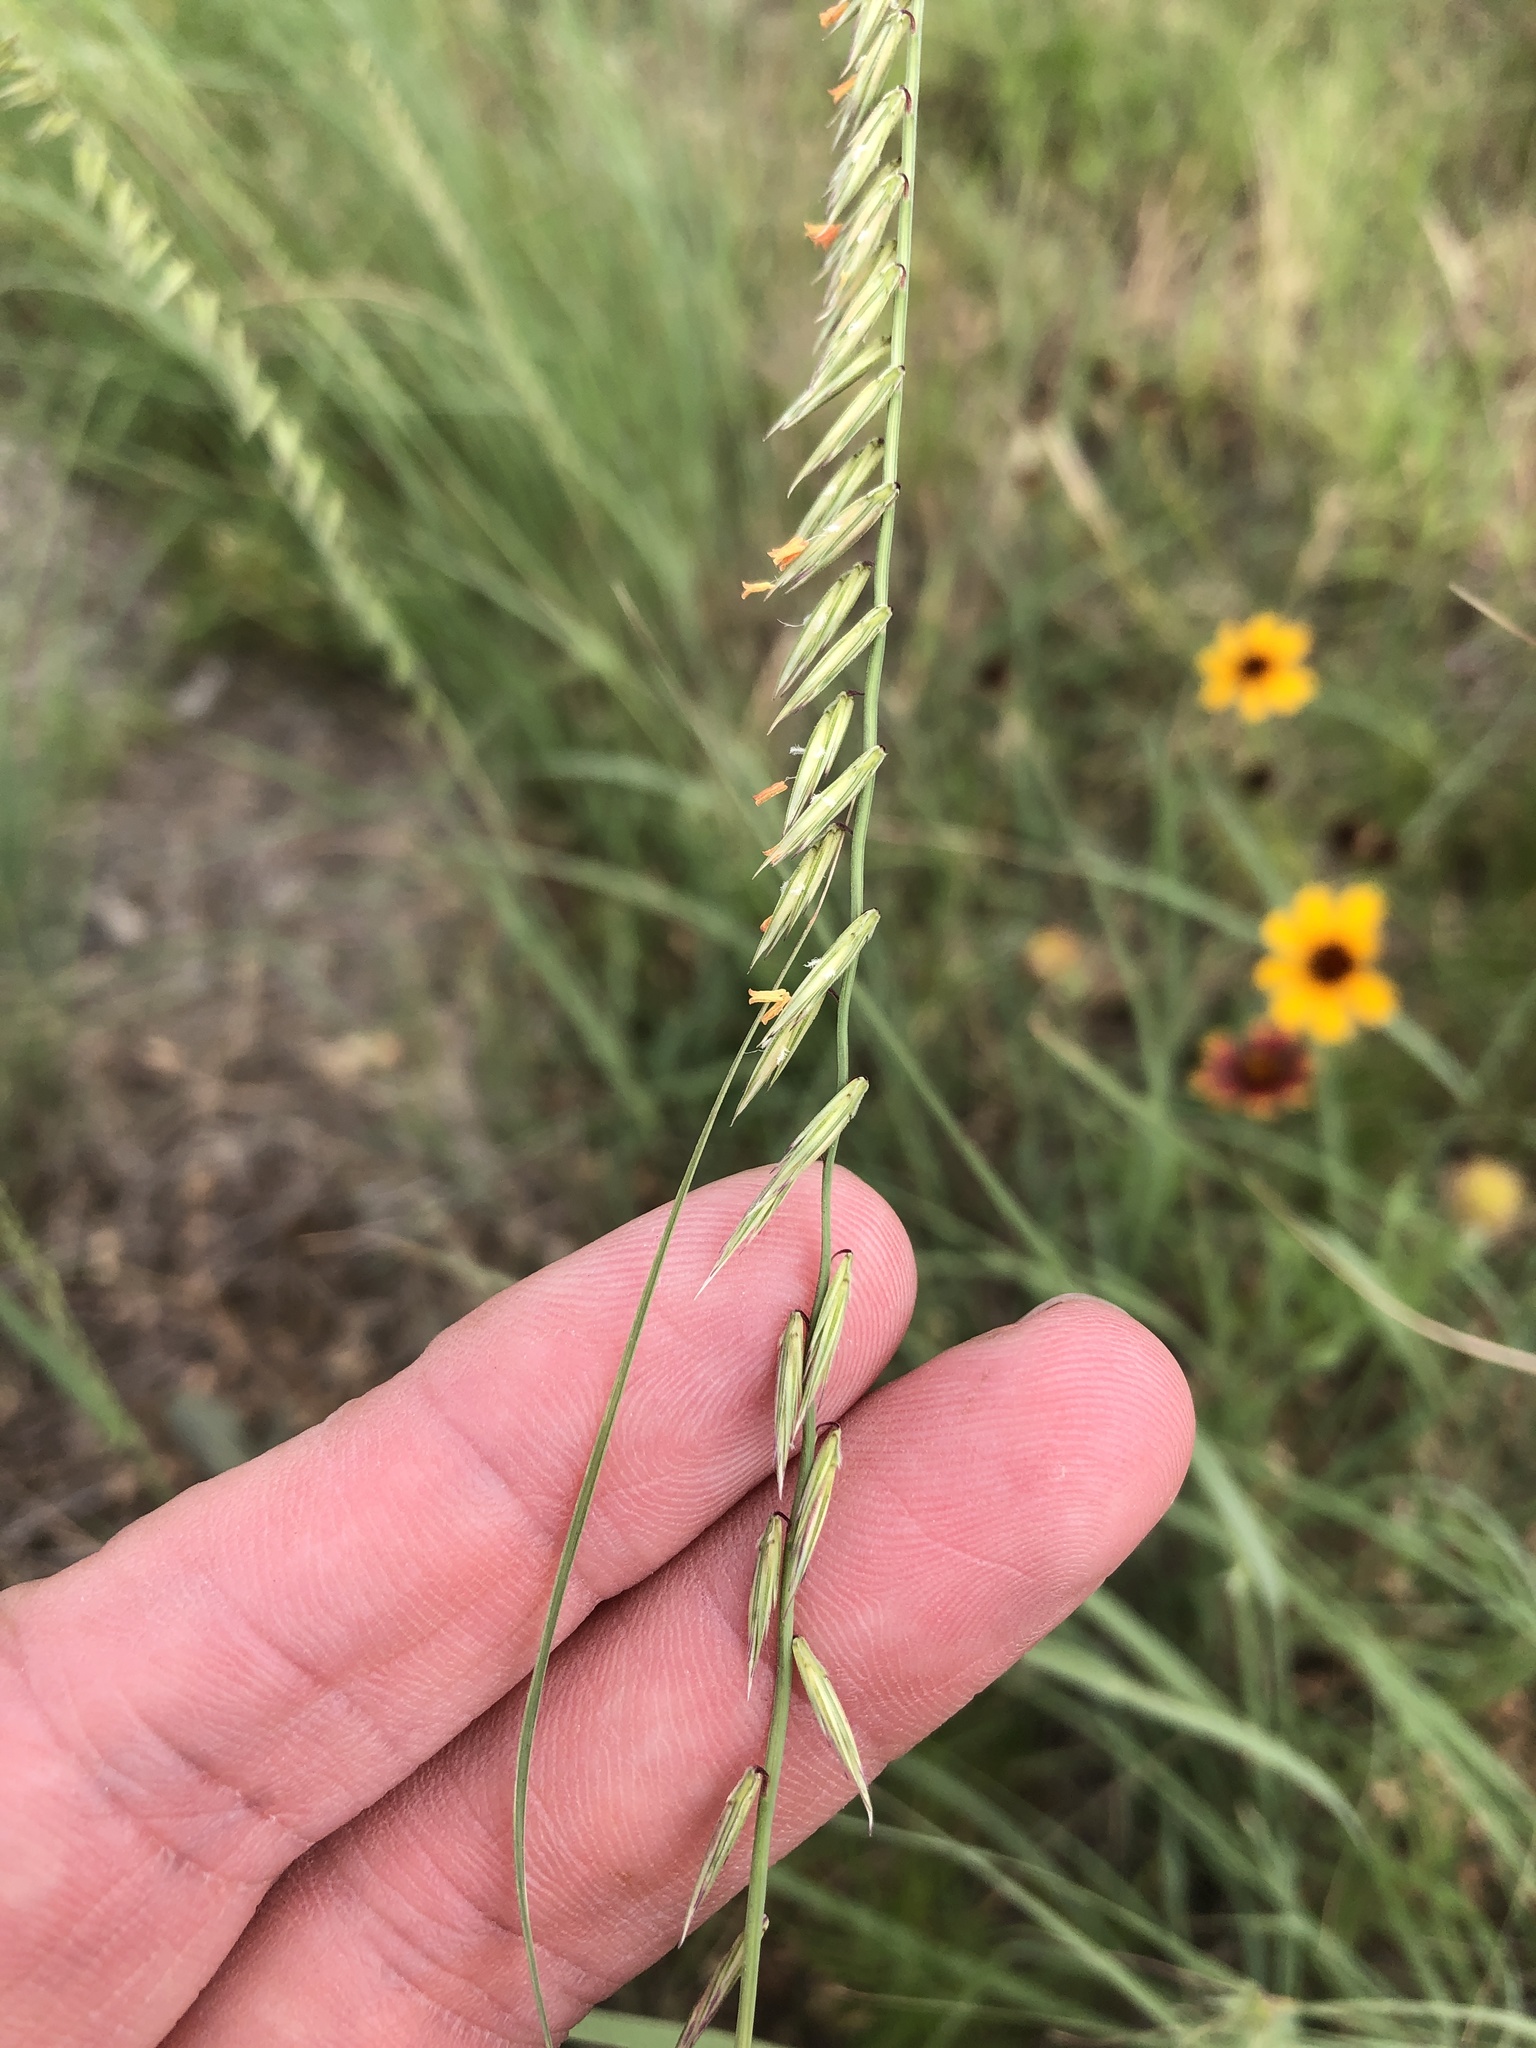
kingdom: Plantae
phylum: Tracheophyta
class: Liliopsida
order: Poales
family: Poaceae
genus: Bouteloua
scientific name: Bouteloua curtipendula
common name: Side-oats grama
